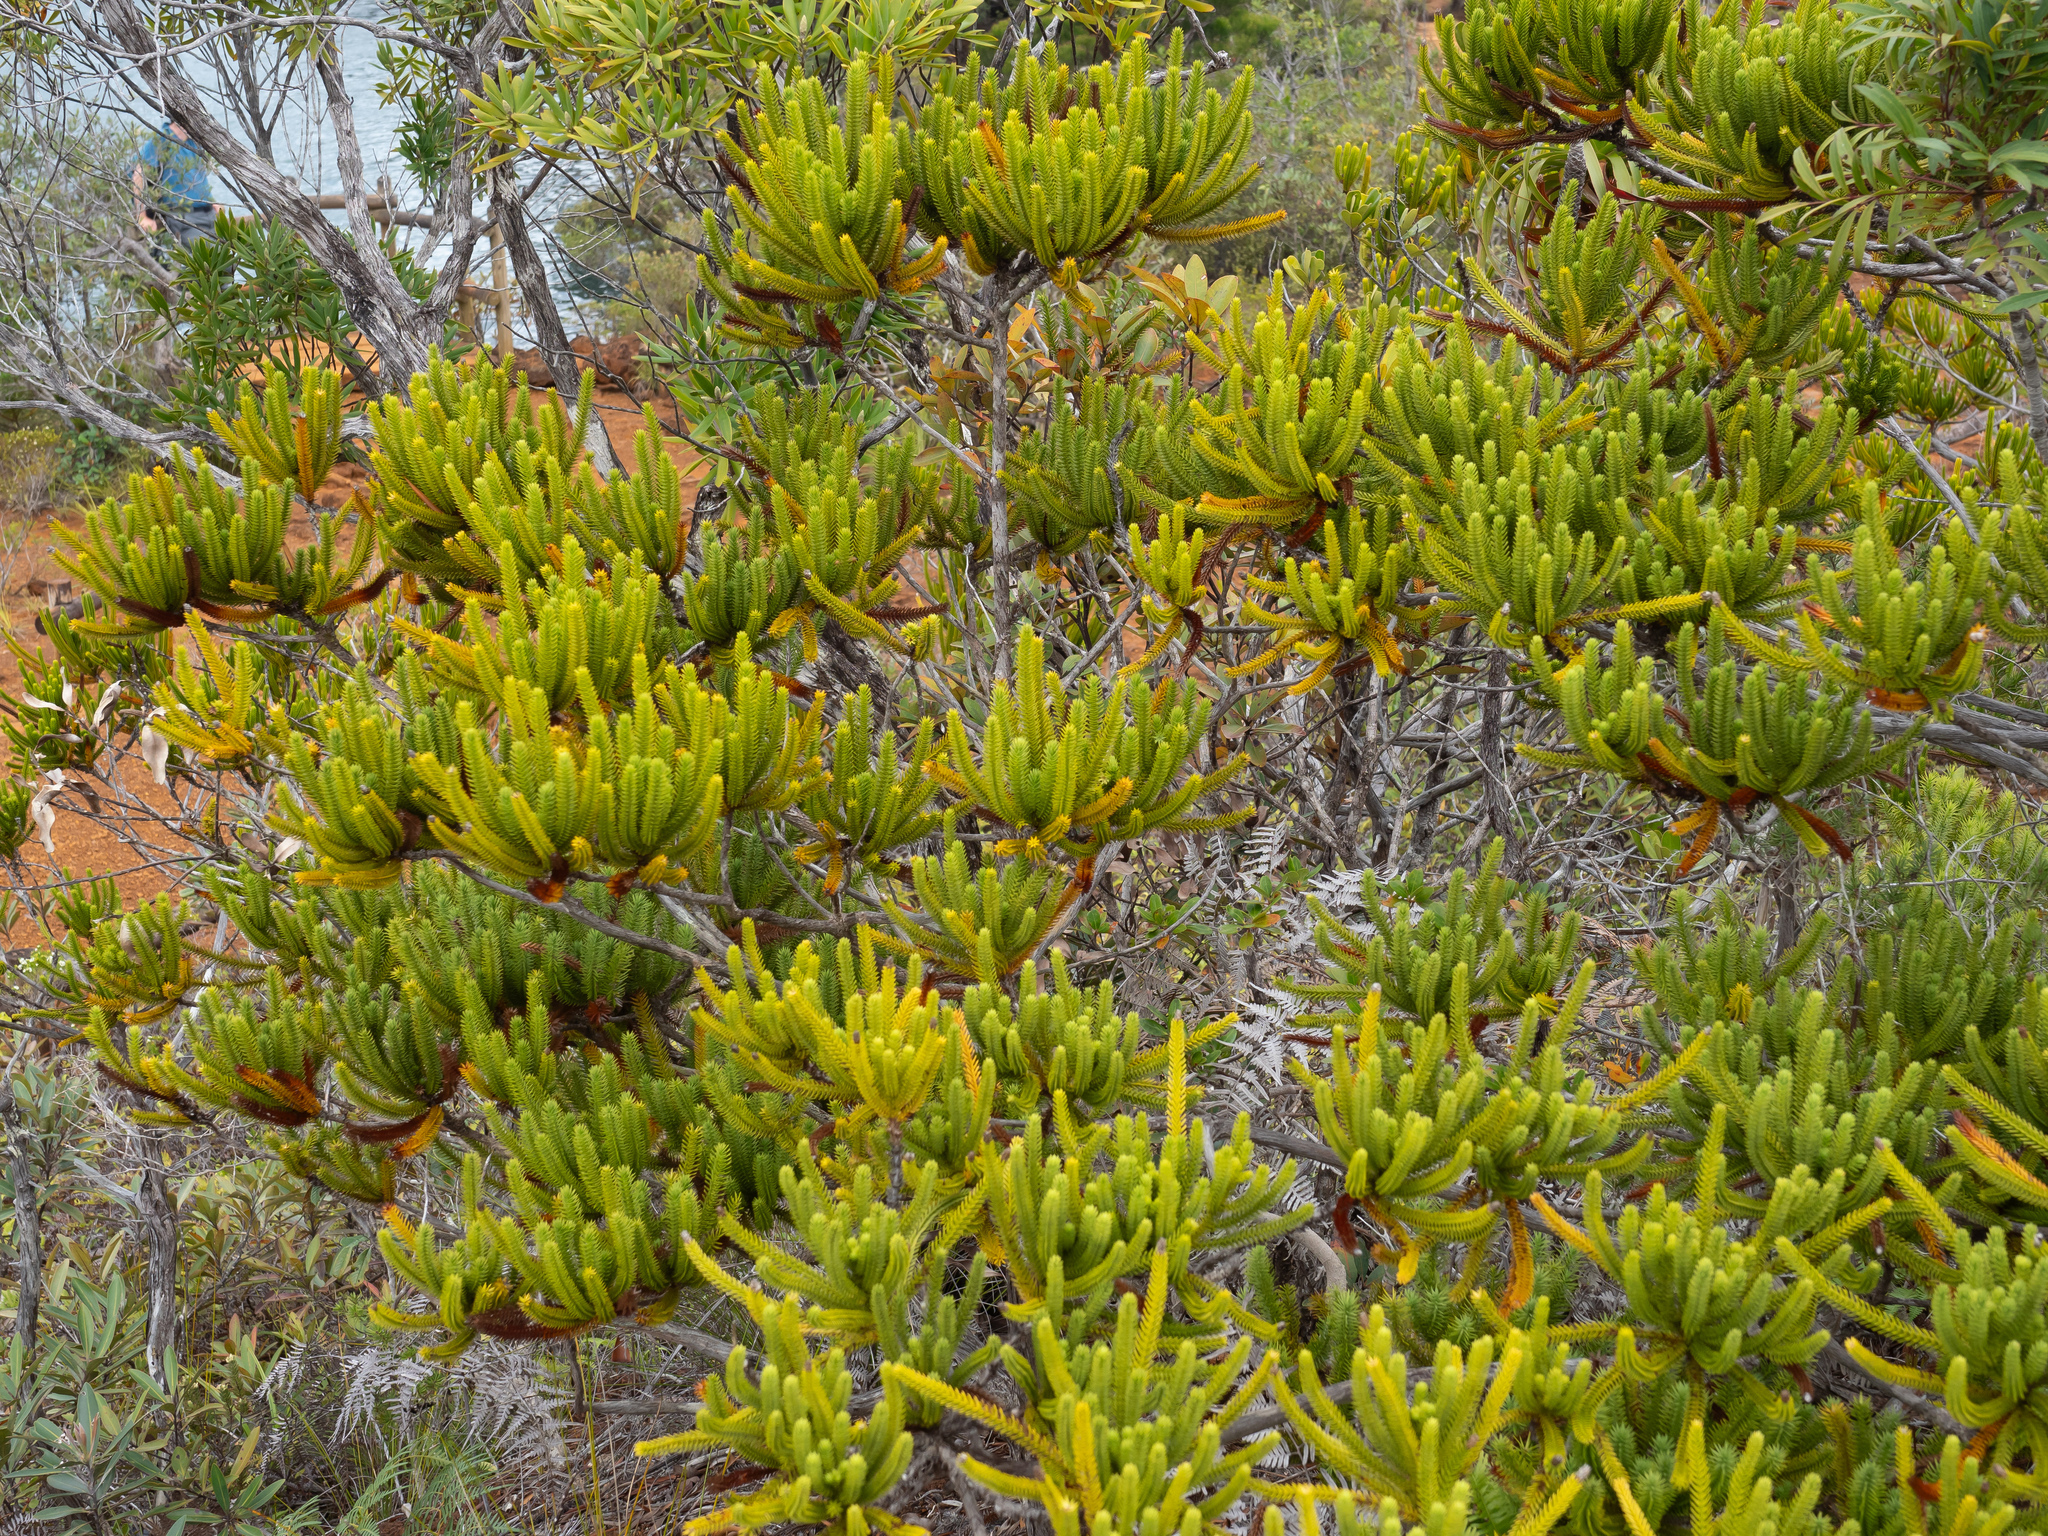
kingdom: Plantae
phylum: Tracheophyta
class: Pinopsida
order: Pinales
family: Cupressaceae
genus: Neocallitropsis
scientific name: Neocallitropsis pancheri
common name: Pancher neocallitropsis
